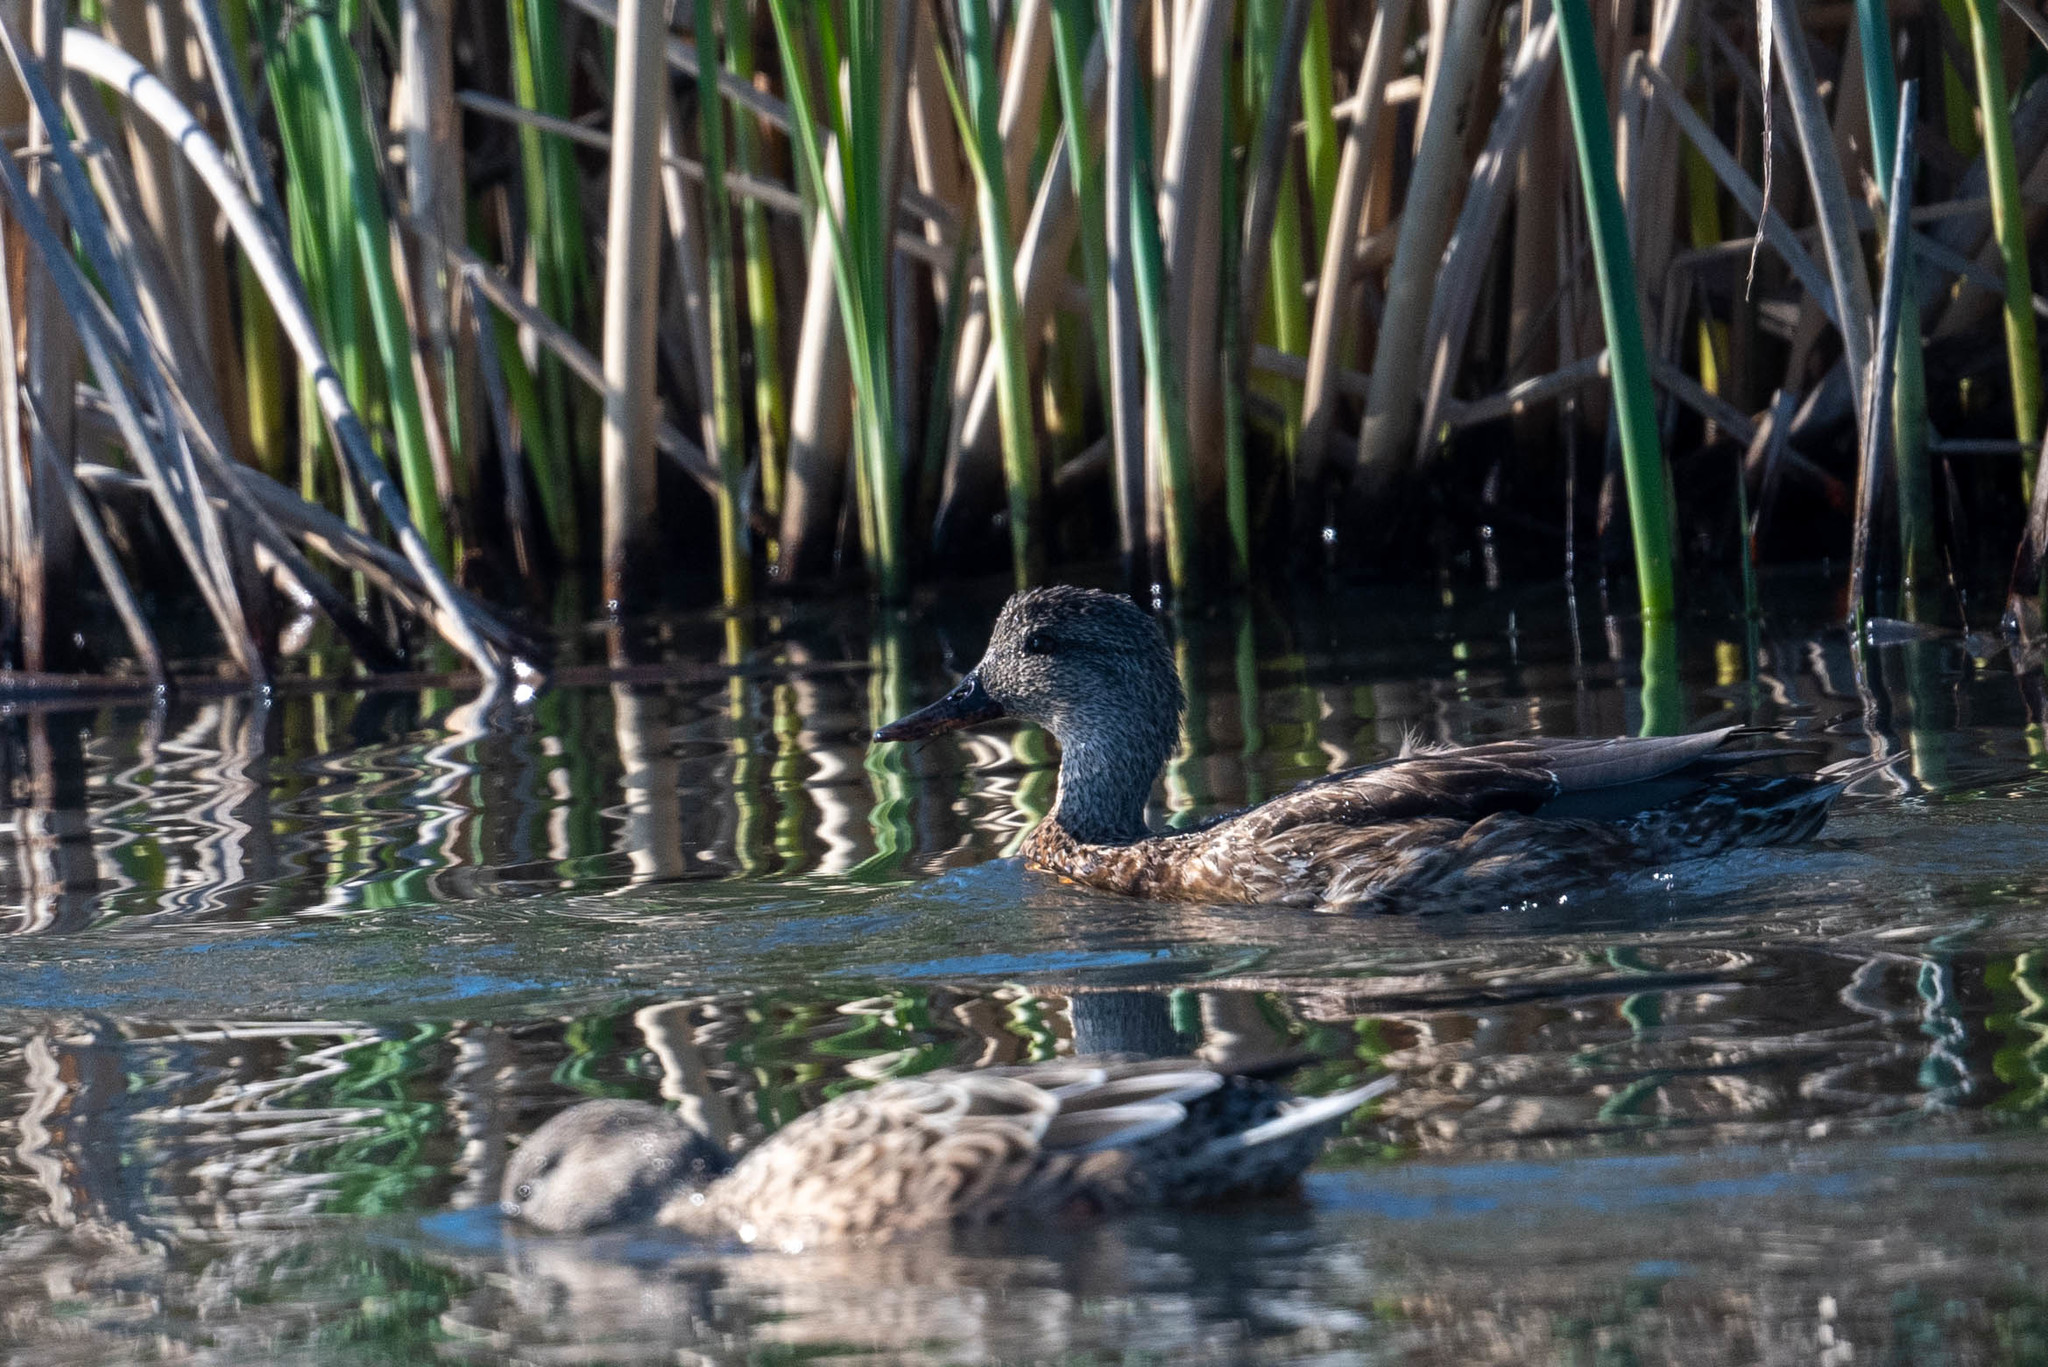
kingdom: Animalia
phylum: Chordata
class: Aves
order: Anseriformes
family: Anatidae
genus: Mareca
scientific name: Mareca strepera
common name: Gadwall
